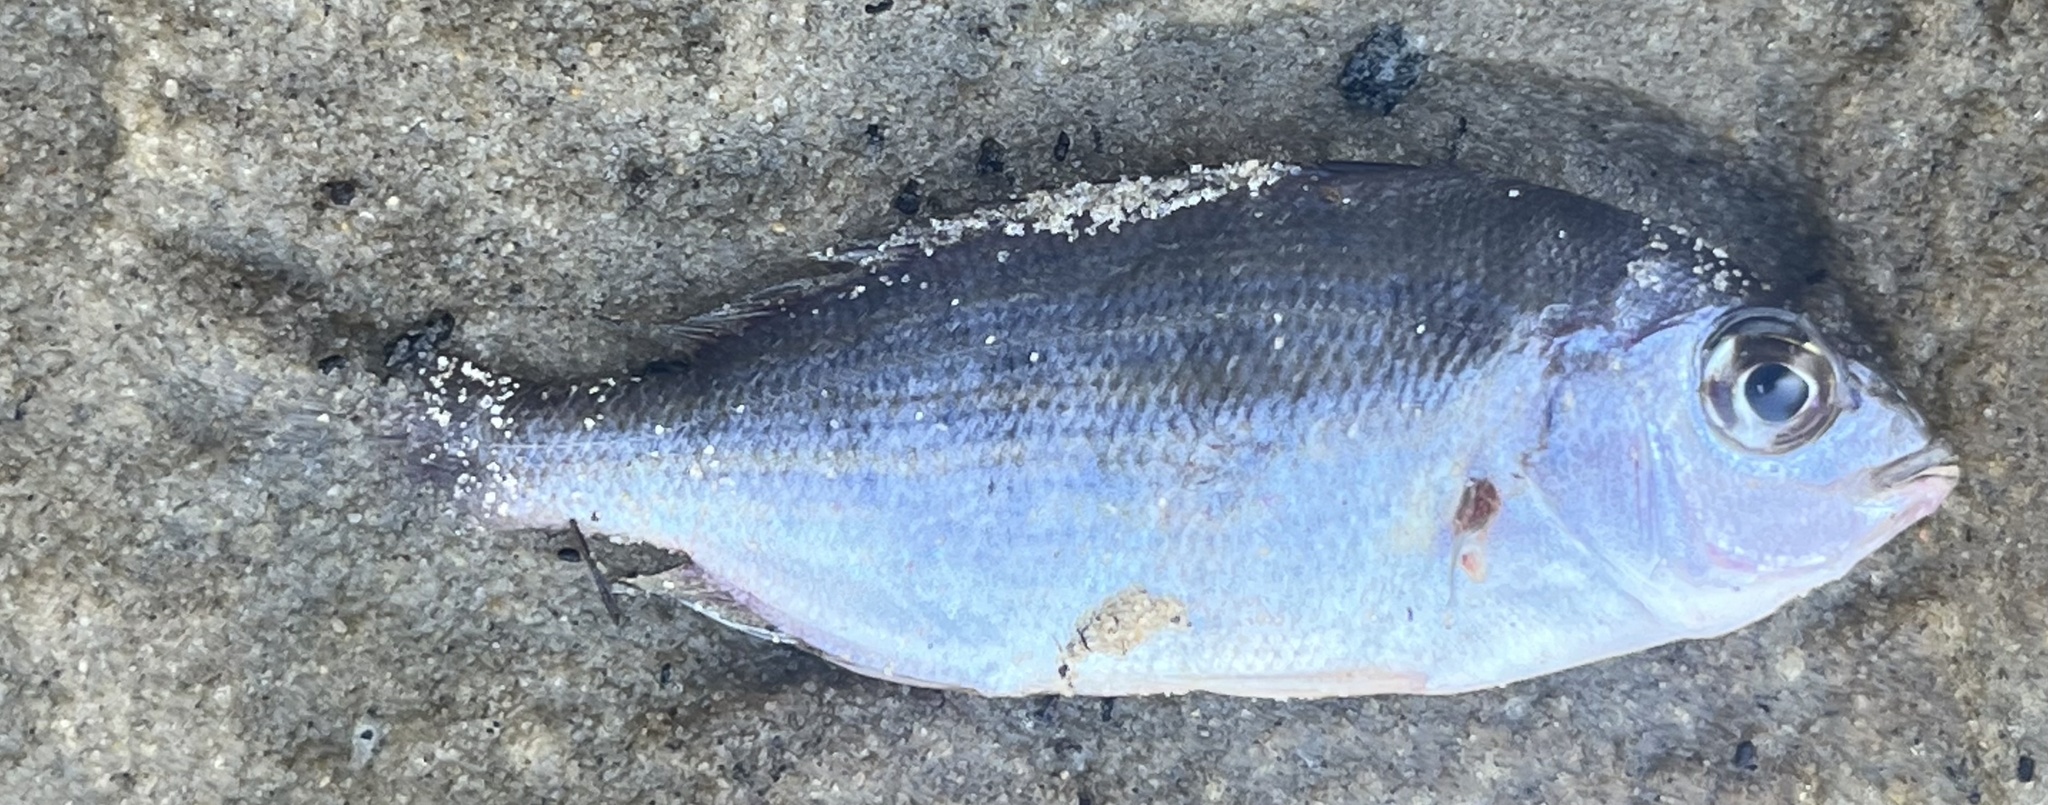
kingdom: Animalia
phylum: Chordata
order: Perciformes
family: Sparidae
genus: Lagodon
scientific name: Lagodon rhomboides
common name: Pinfish
